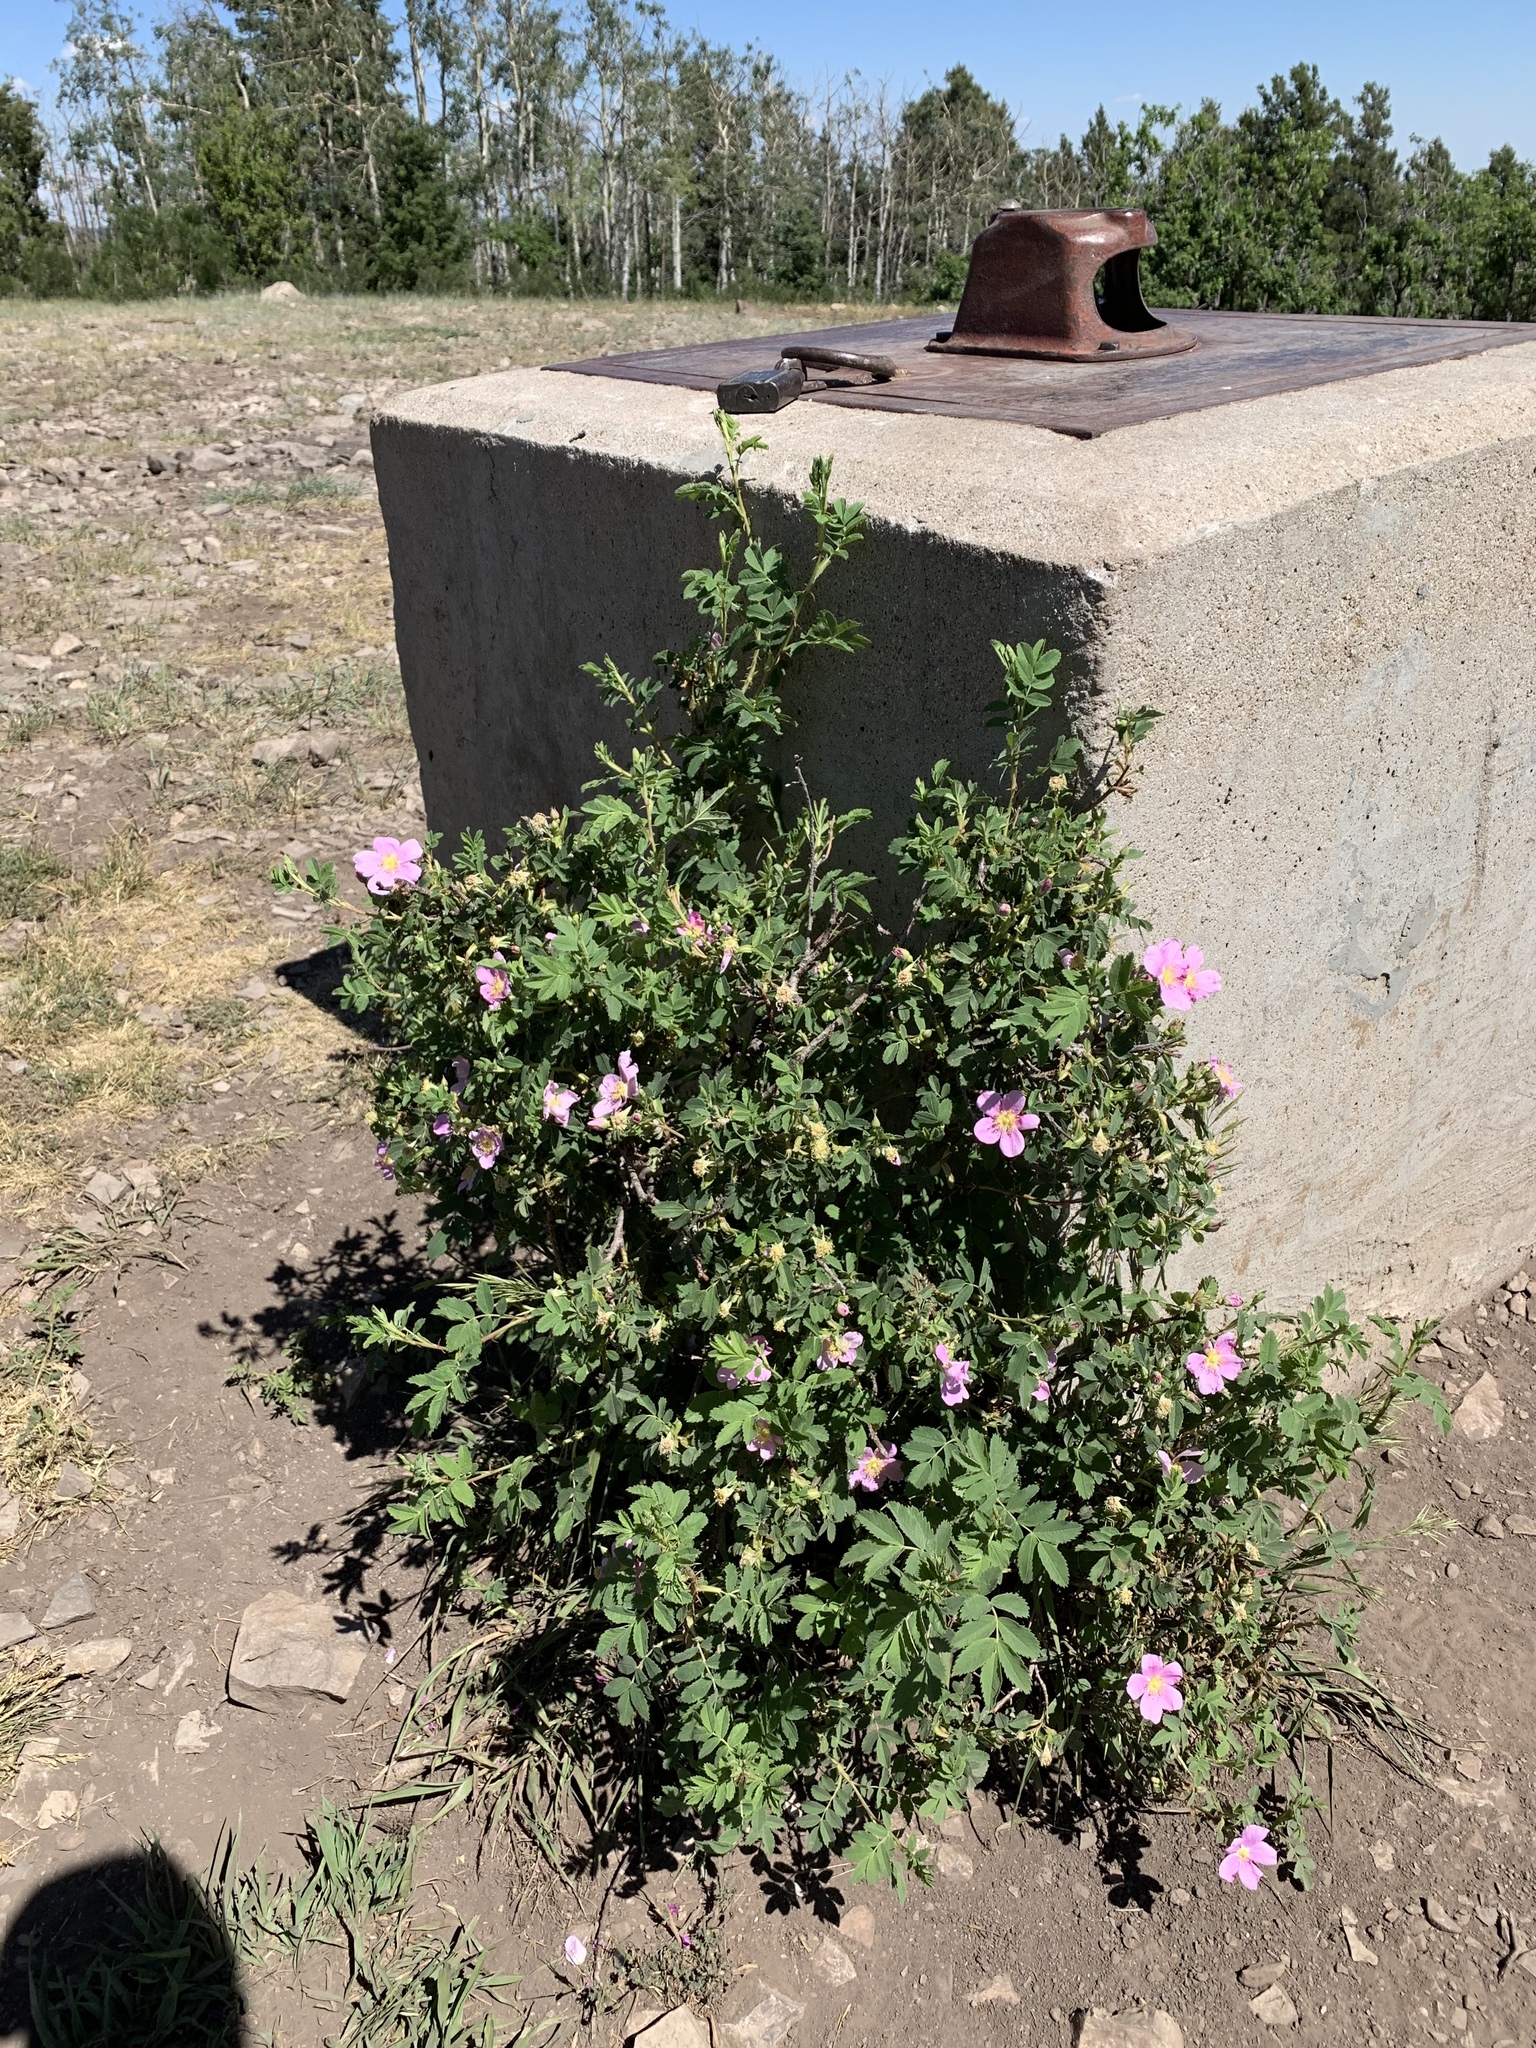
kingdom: Plantae
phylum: Tracheophyta
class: Magnoliopsida
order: Rosales
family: Rosaceae
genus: Rosa
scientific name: Rosa woodsii
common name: Woods's rose
